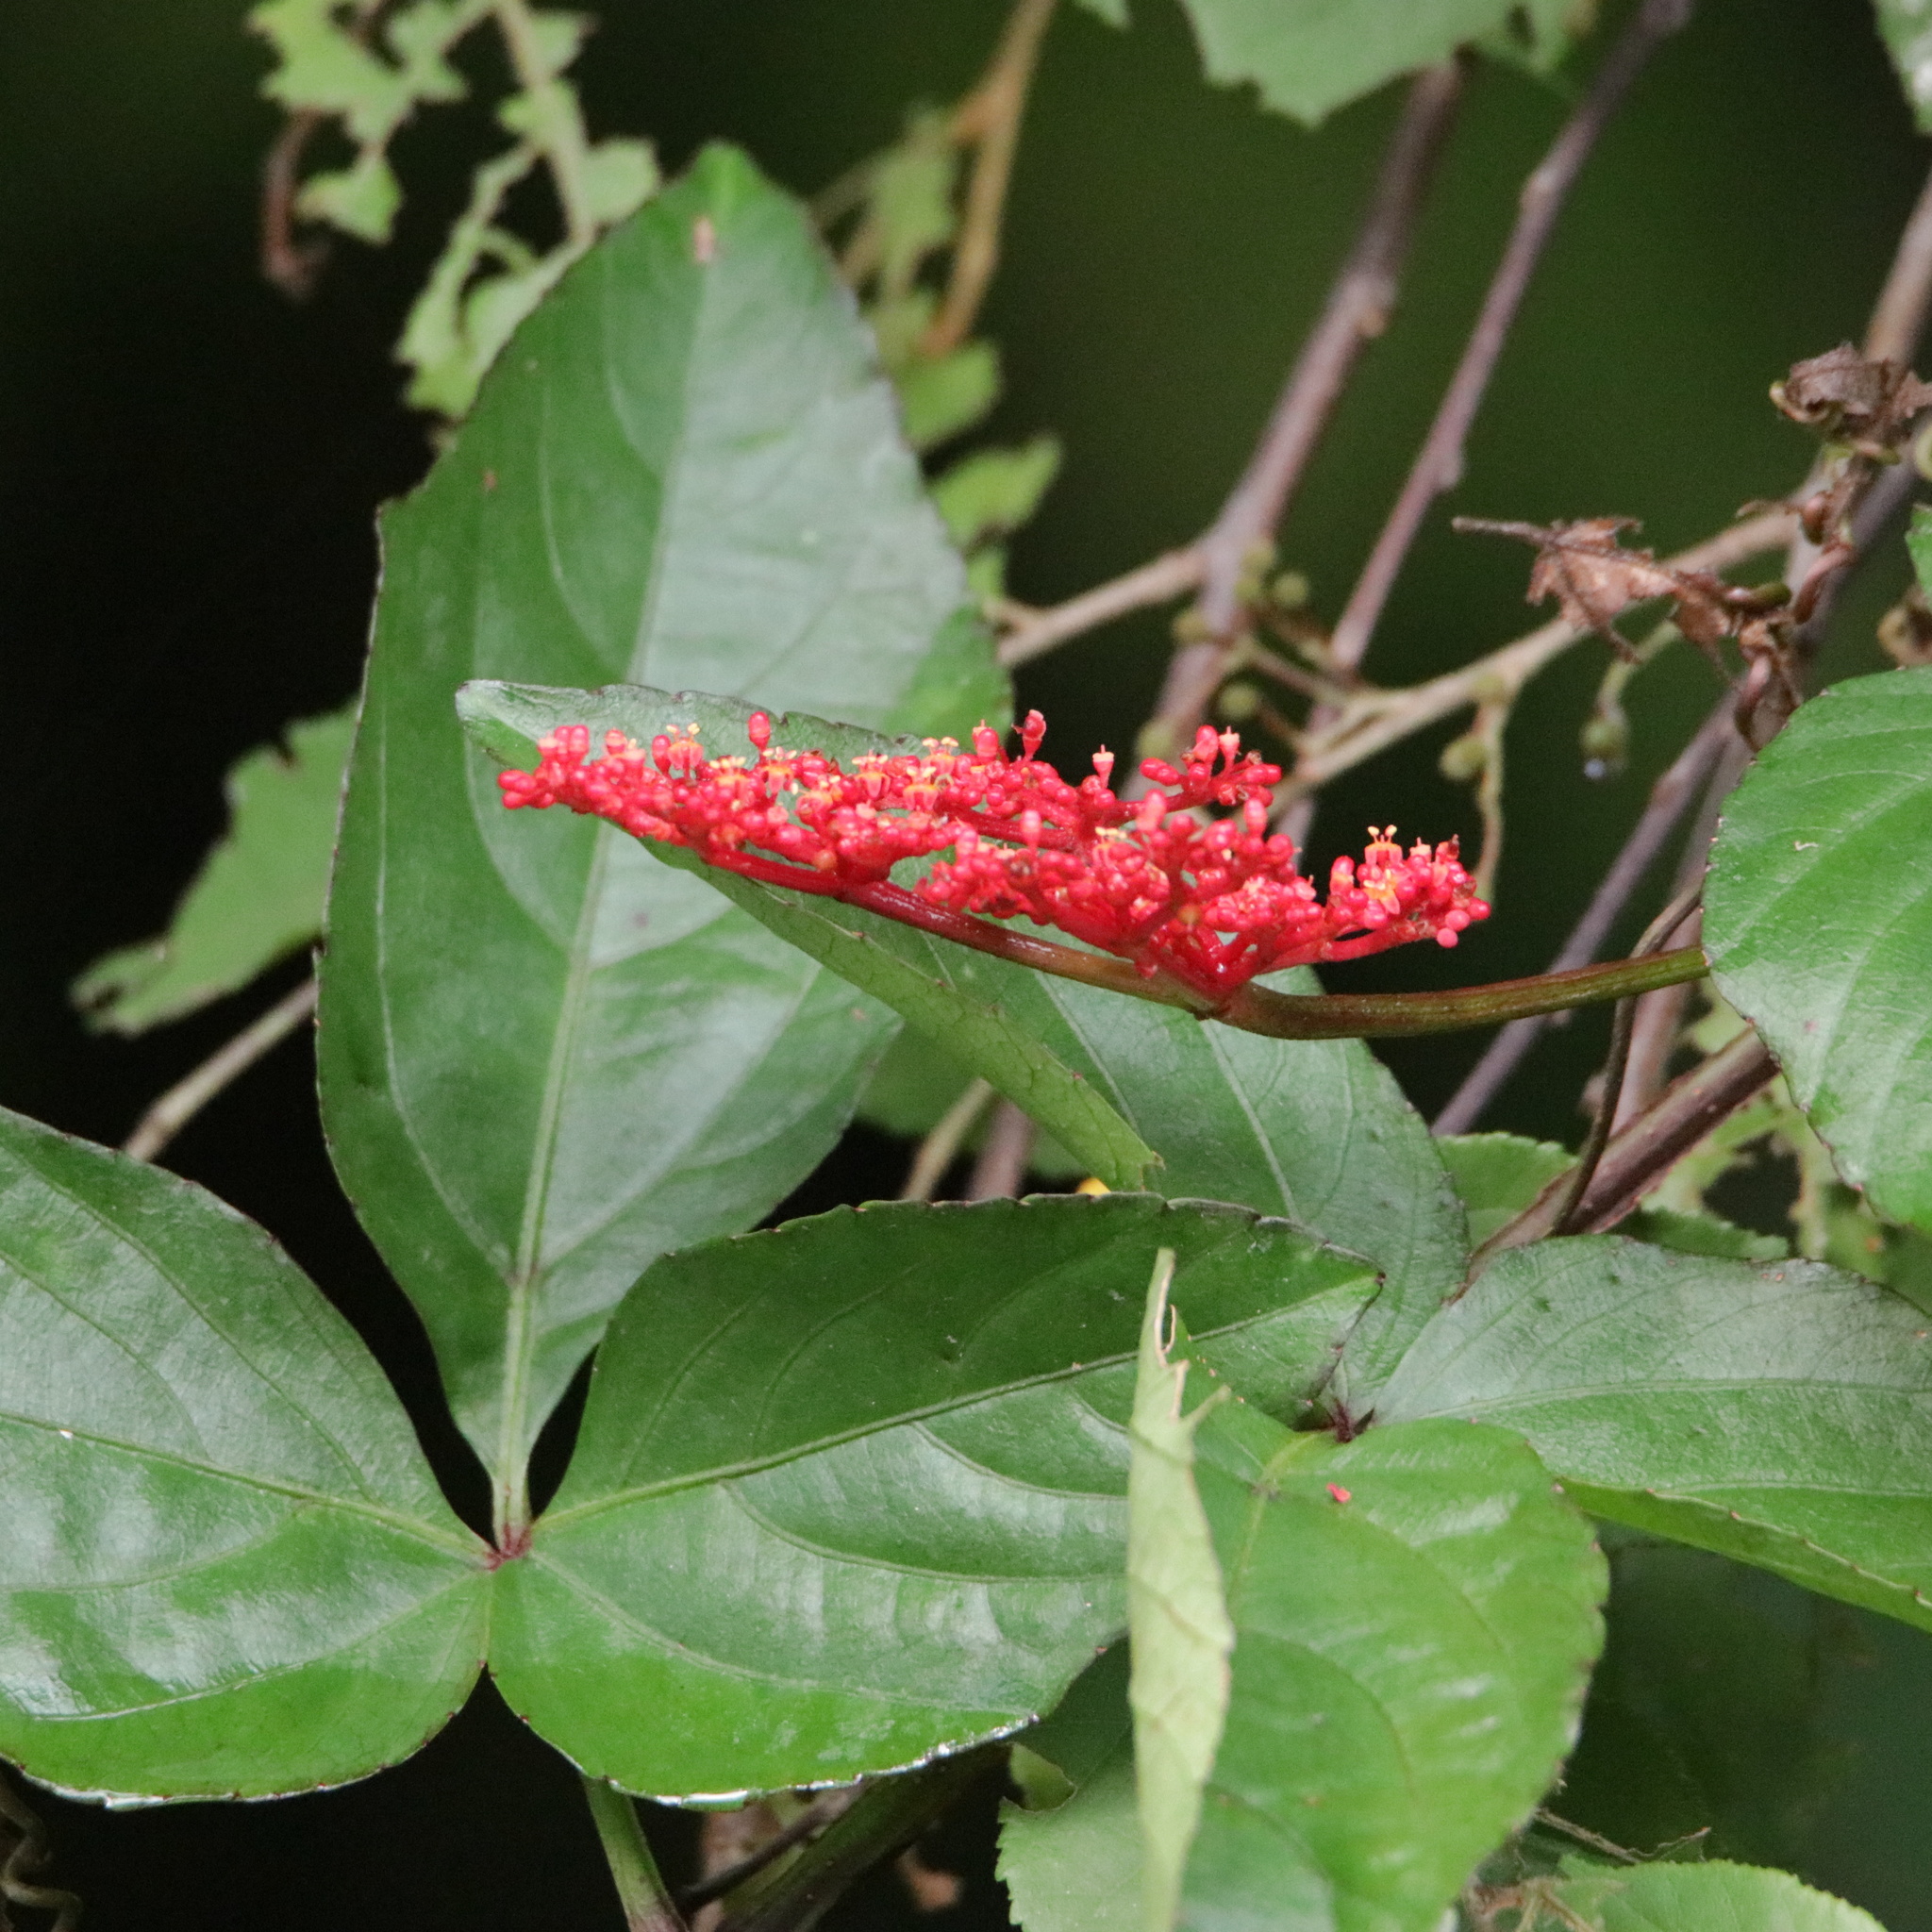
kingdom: Plantae
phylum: Tracheophyta
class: Magnoliopsida
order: Vitales
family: Vitaceae
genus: Cissus
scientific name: Cissus erosa
